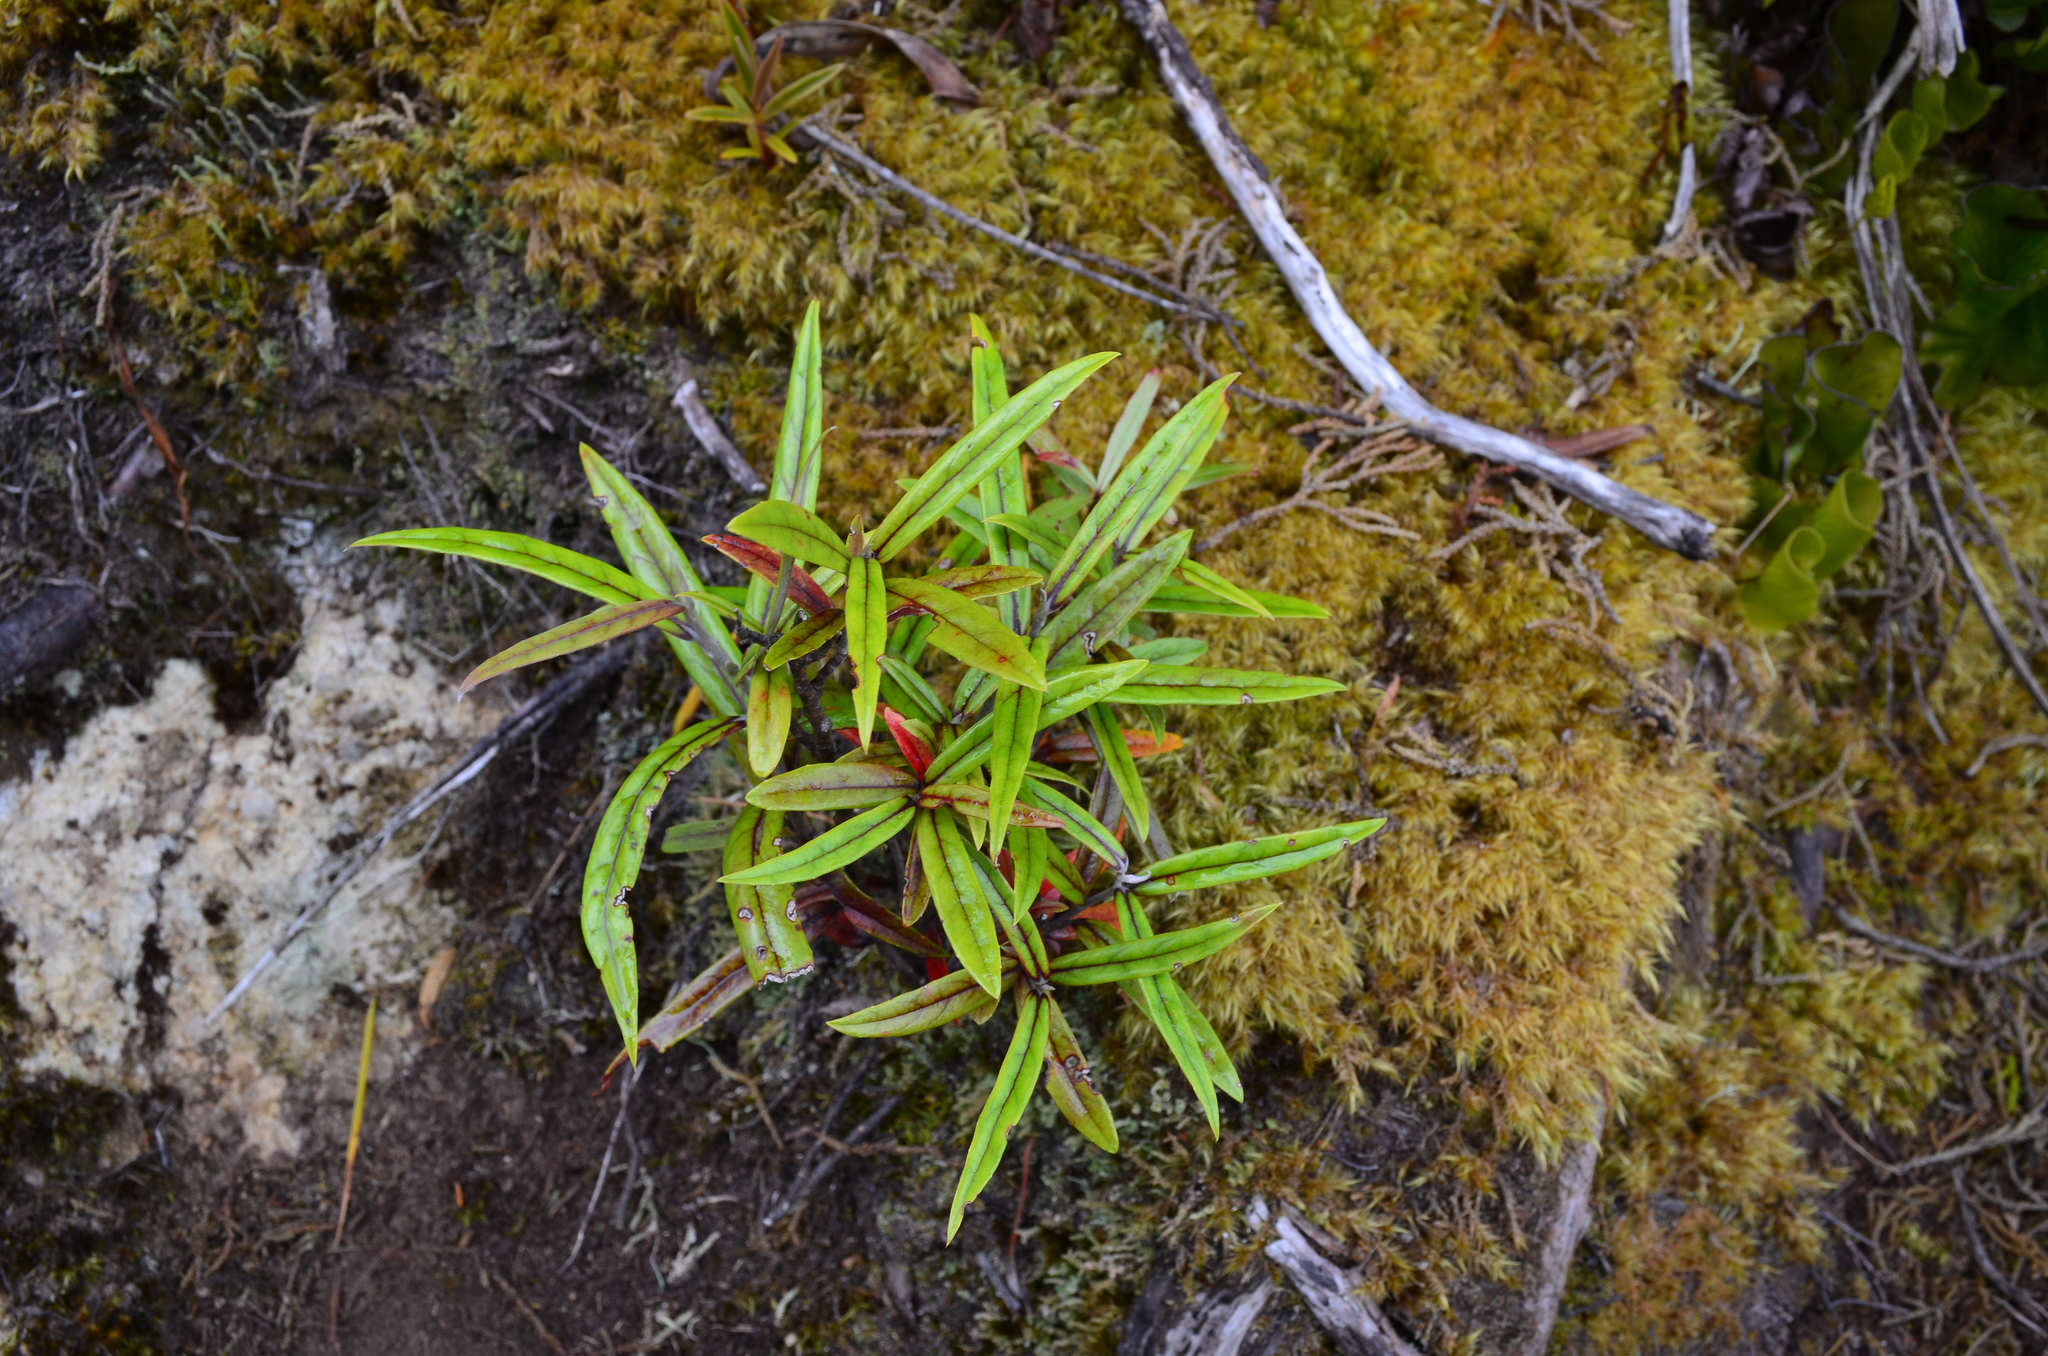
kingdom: Plantae
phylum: Tracheophyta
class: Magnoliopsida
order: Asterales
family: Argophyllaceae
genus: Corokia
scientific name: Corokia buddleioides
